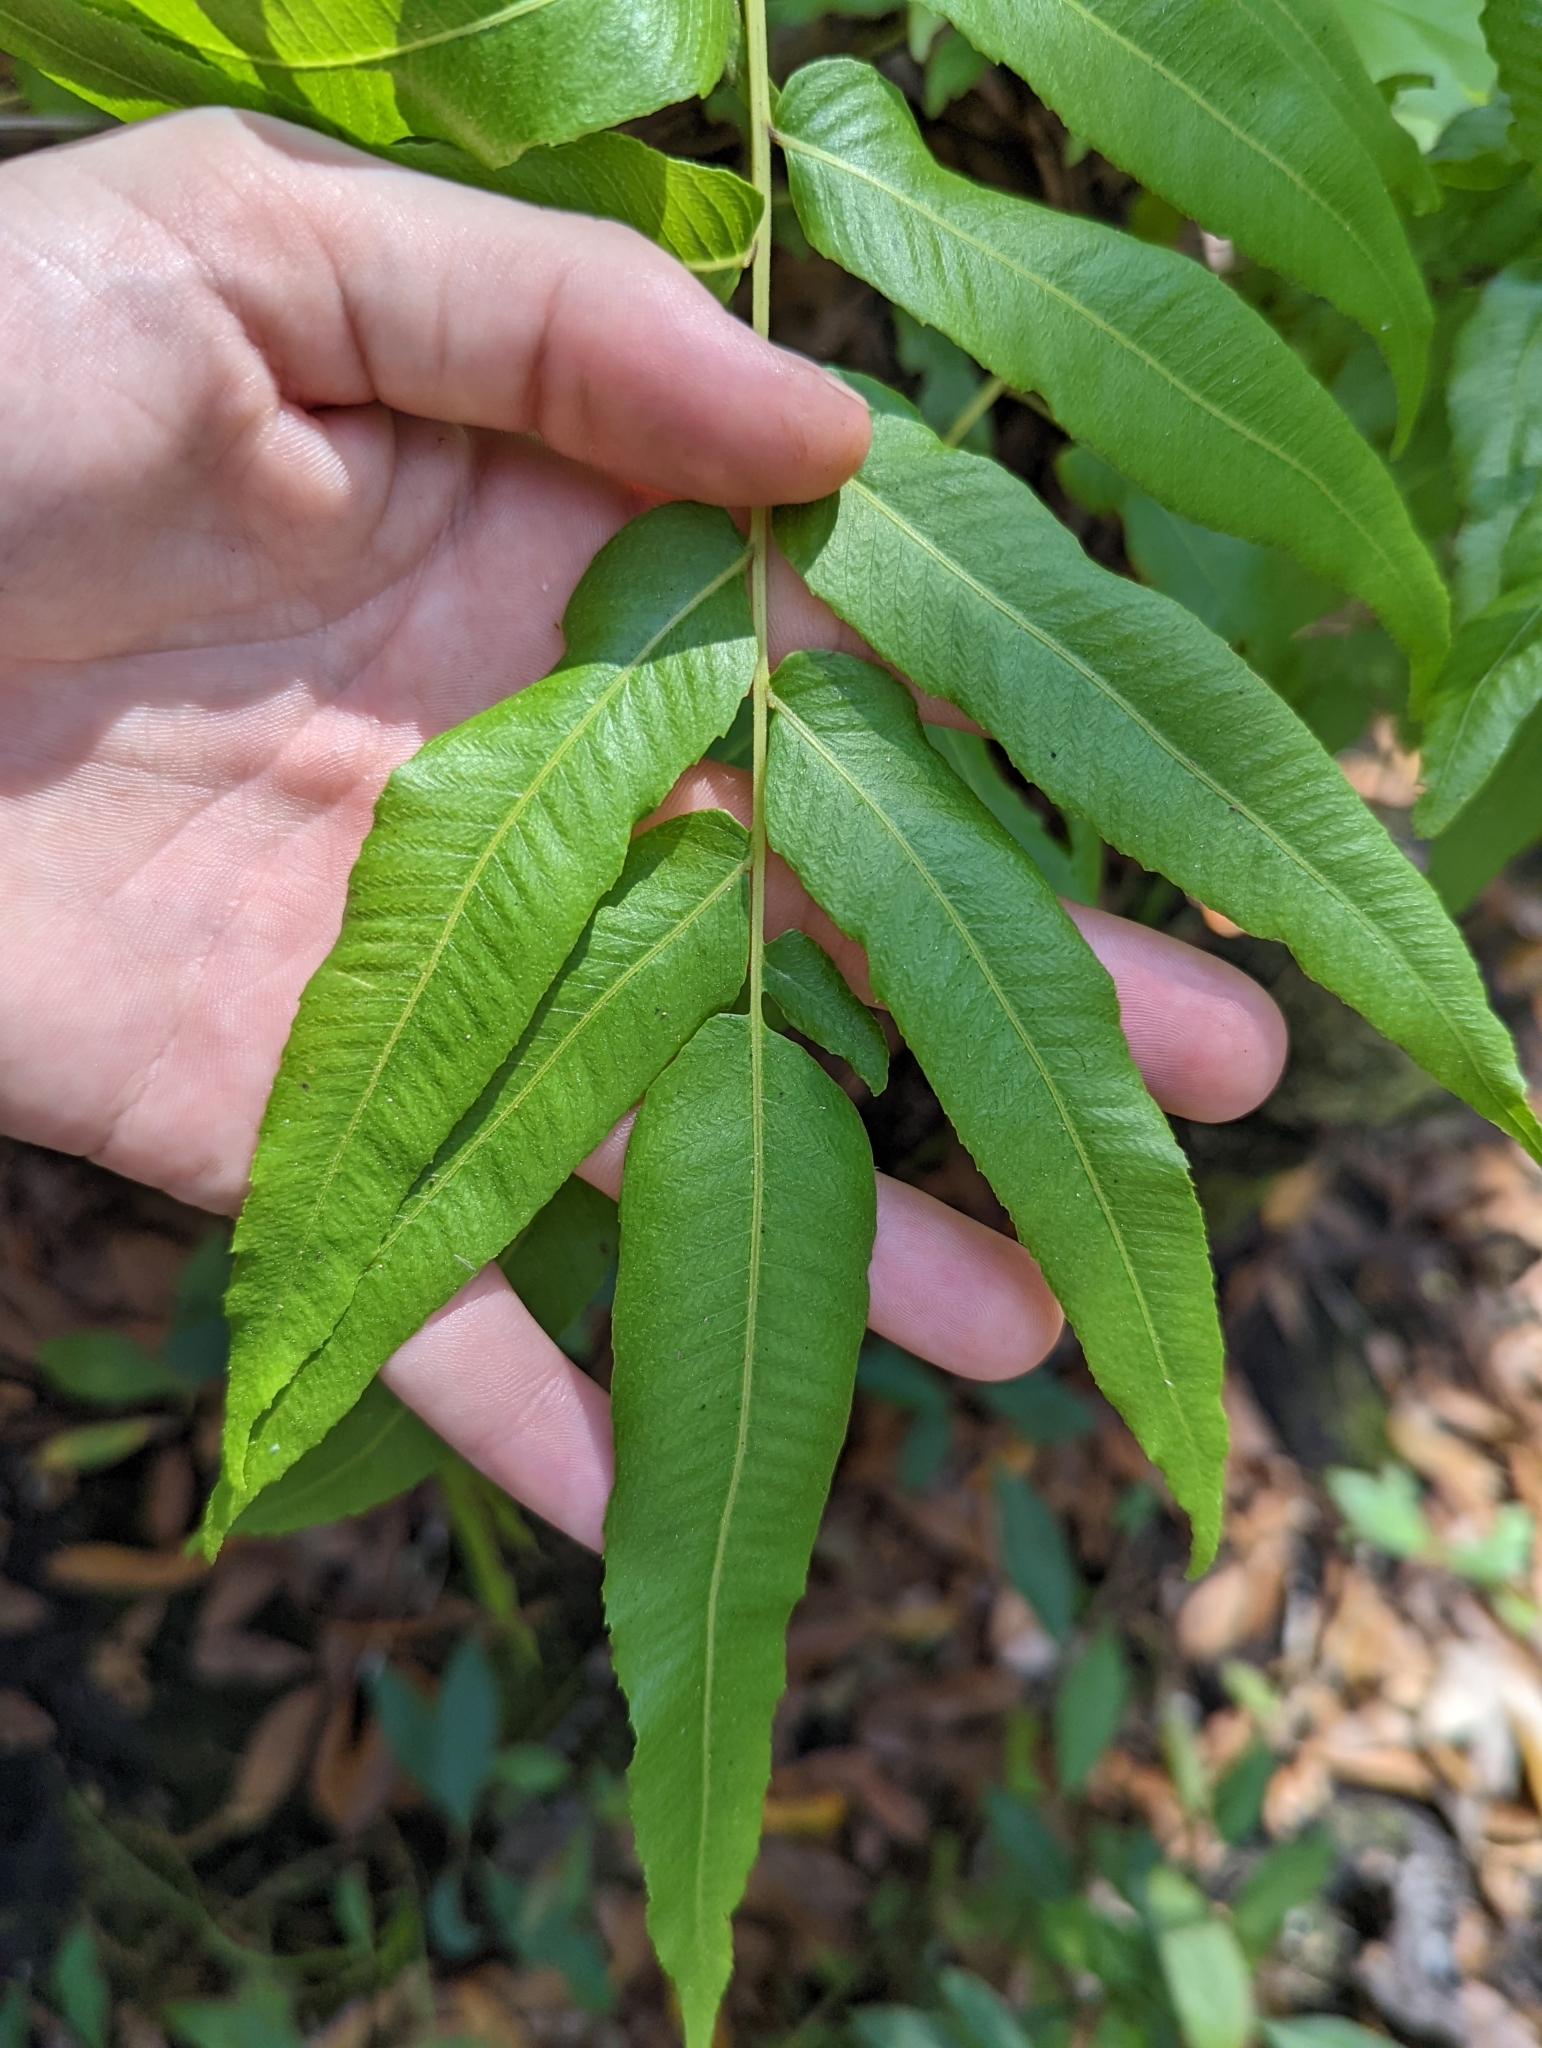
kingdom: Plantae
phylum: Tracheophyta
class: Polypodiopsida
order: Polypodiales
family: Thelypteridaceae
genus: Meniscium
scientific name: Meniscium serratum
